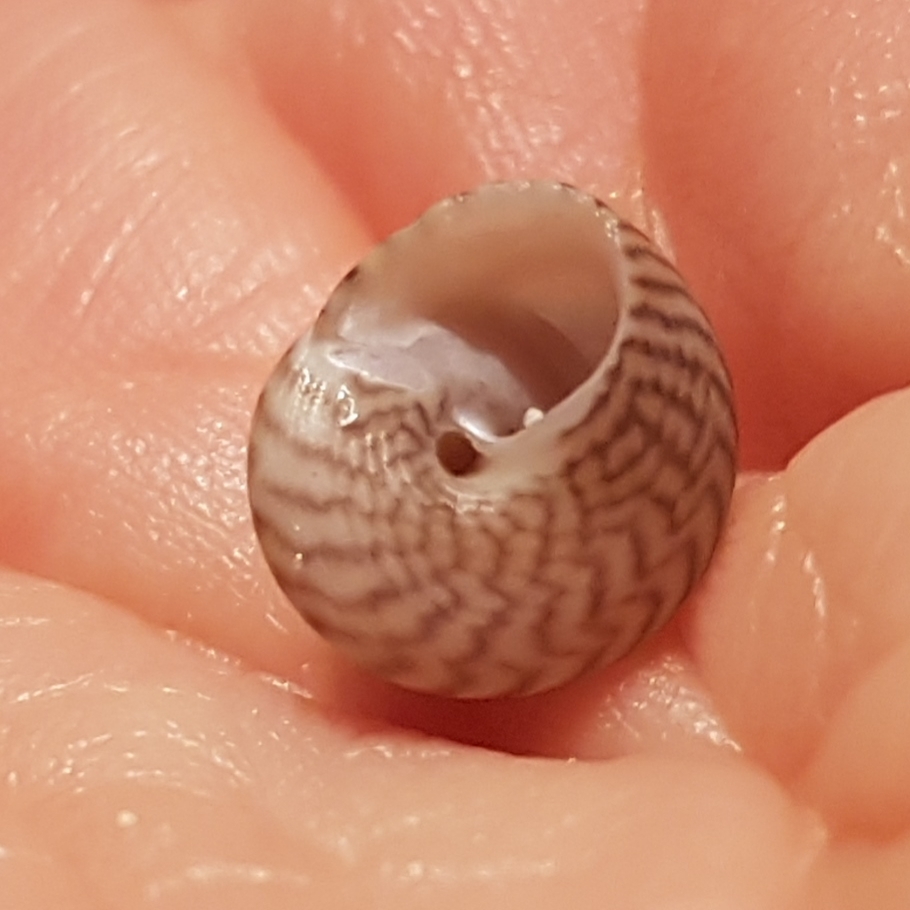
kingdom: Animalia
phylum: Mollusca
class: Gastropoda
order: Trochida
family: Trochidae
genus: Steromphala
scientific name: Steromphala cineraria
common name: Grey top shell
